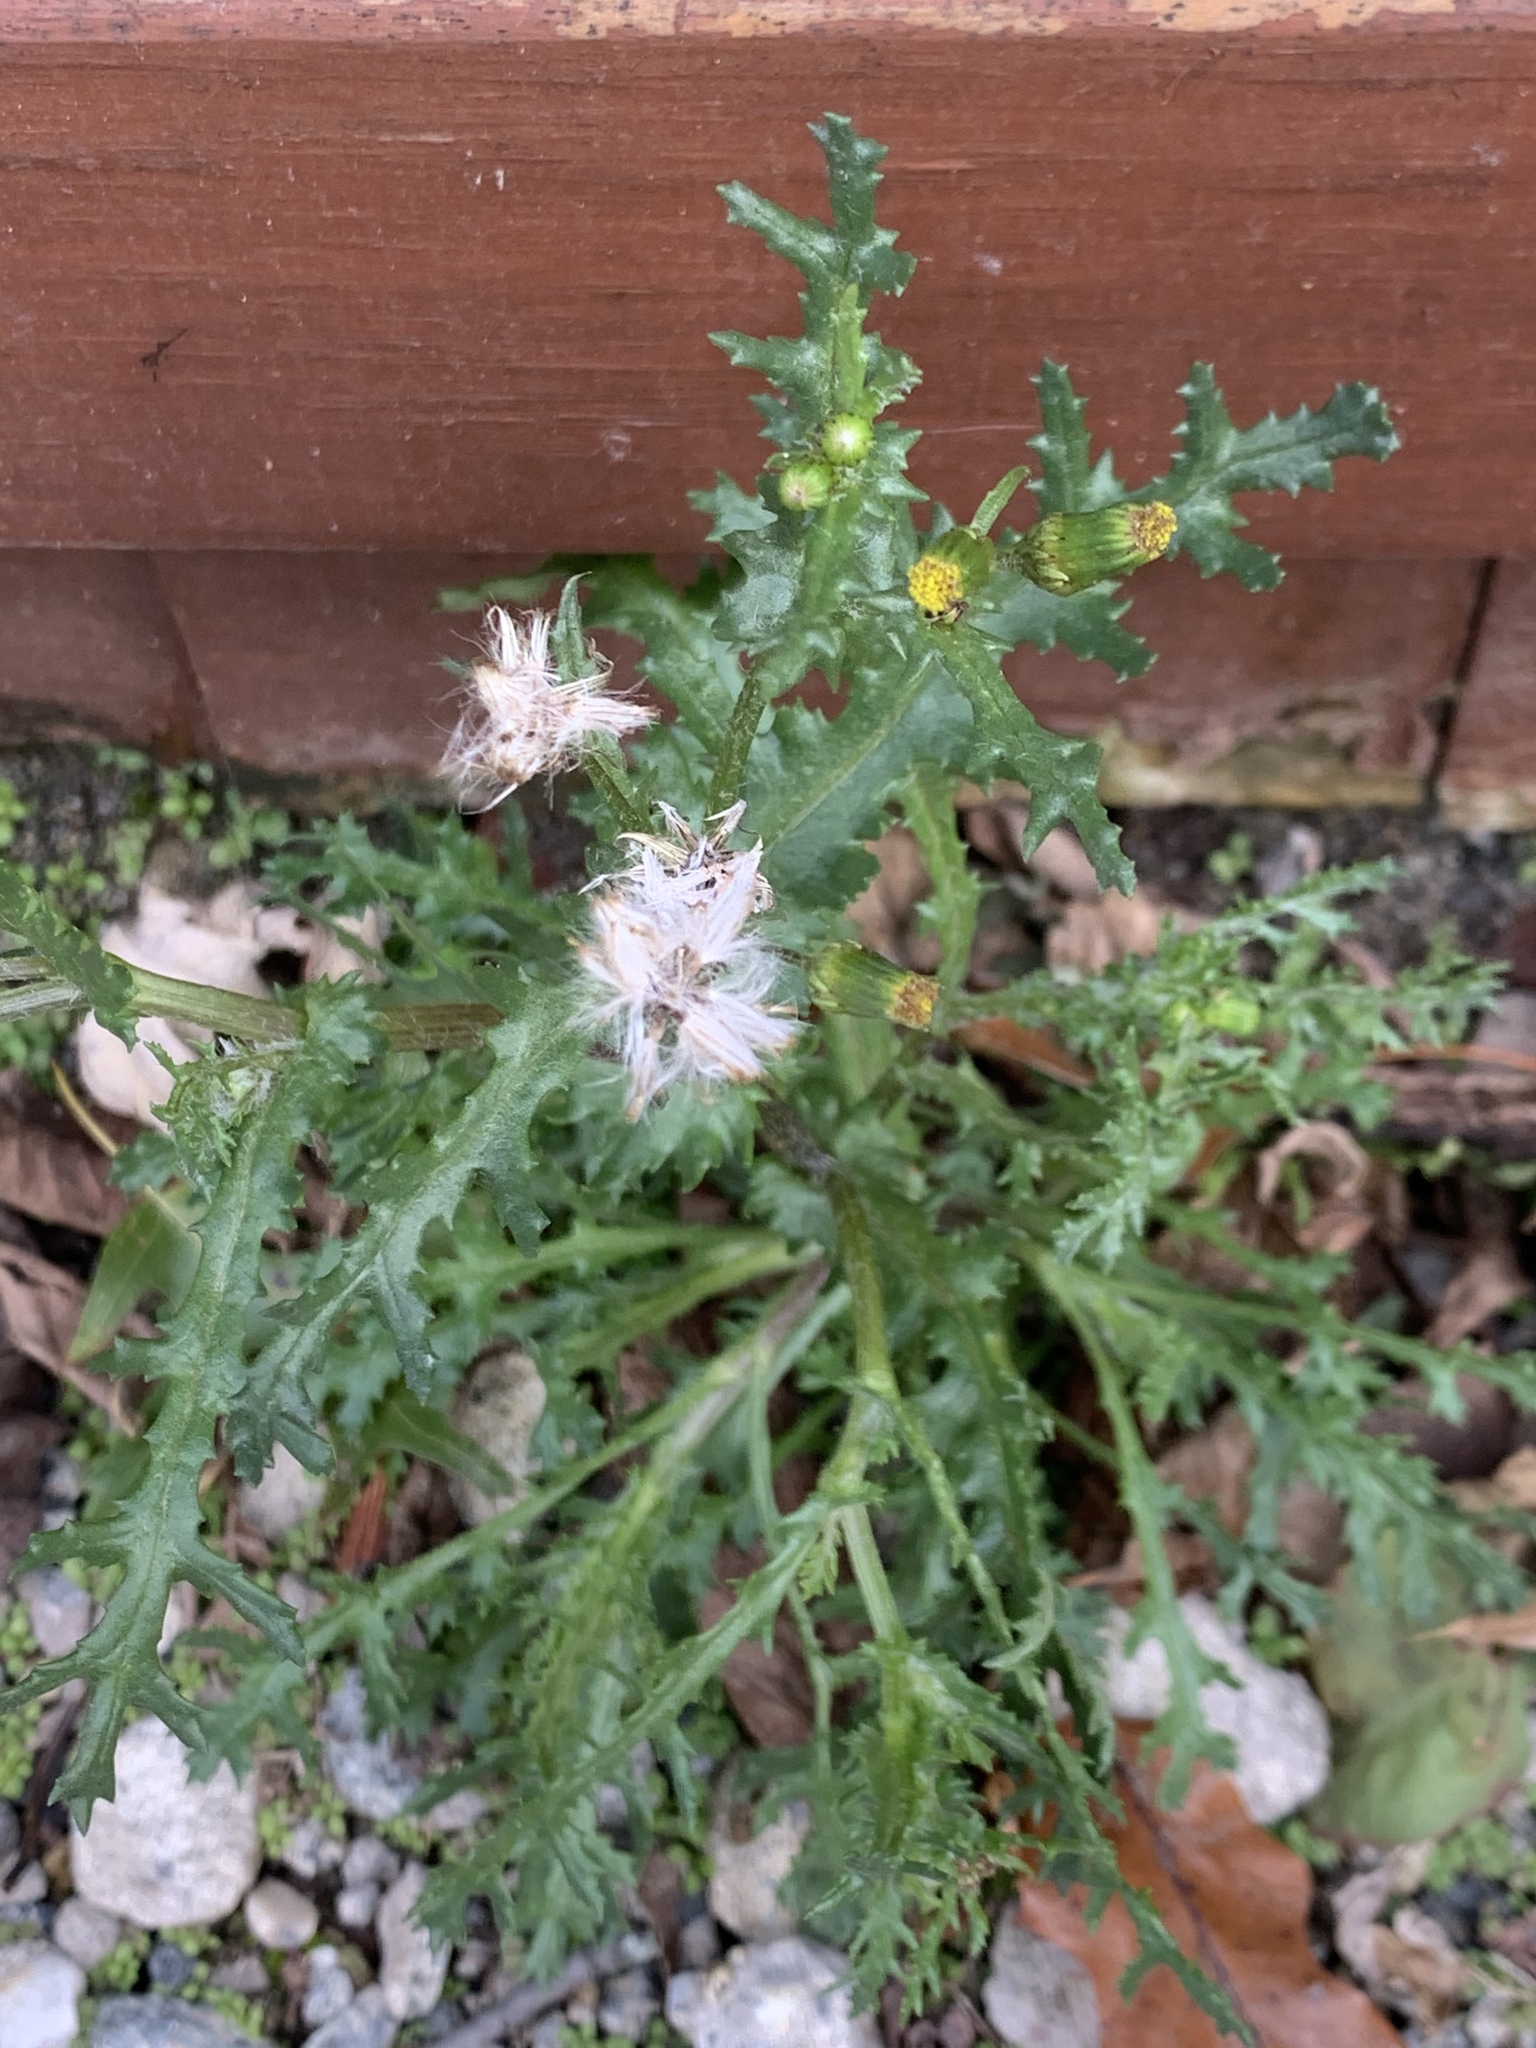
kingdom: Plantae
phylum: Tracheophyta
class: Magnoliopsida
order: Asterales
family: Asteraceae
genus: Senecio
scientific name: Senecio vulgaris
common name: Old-man-in-the-spring
